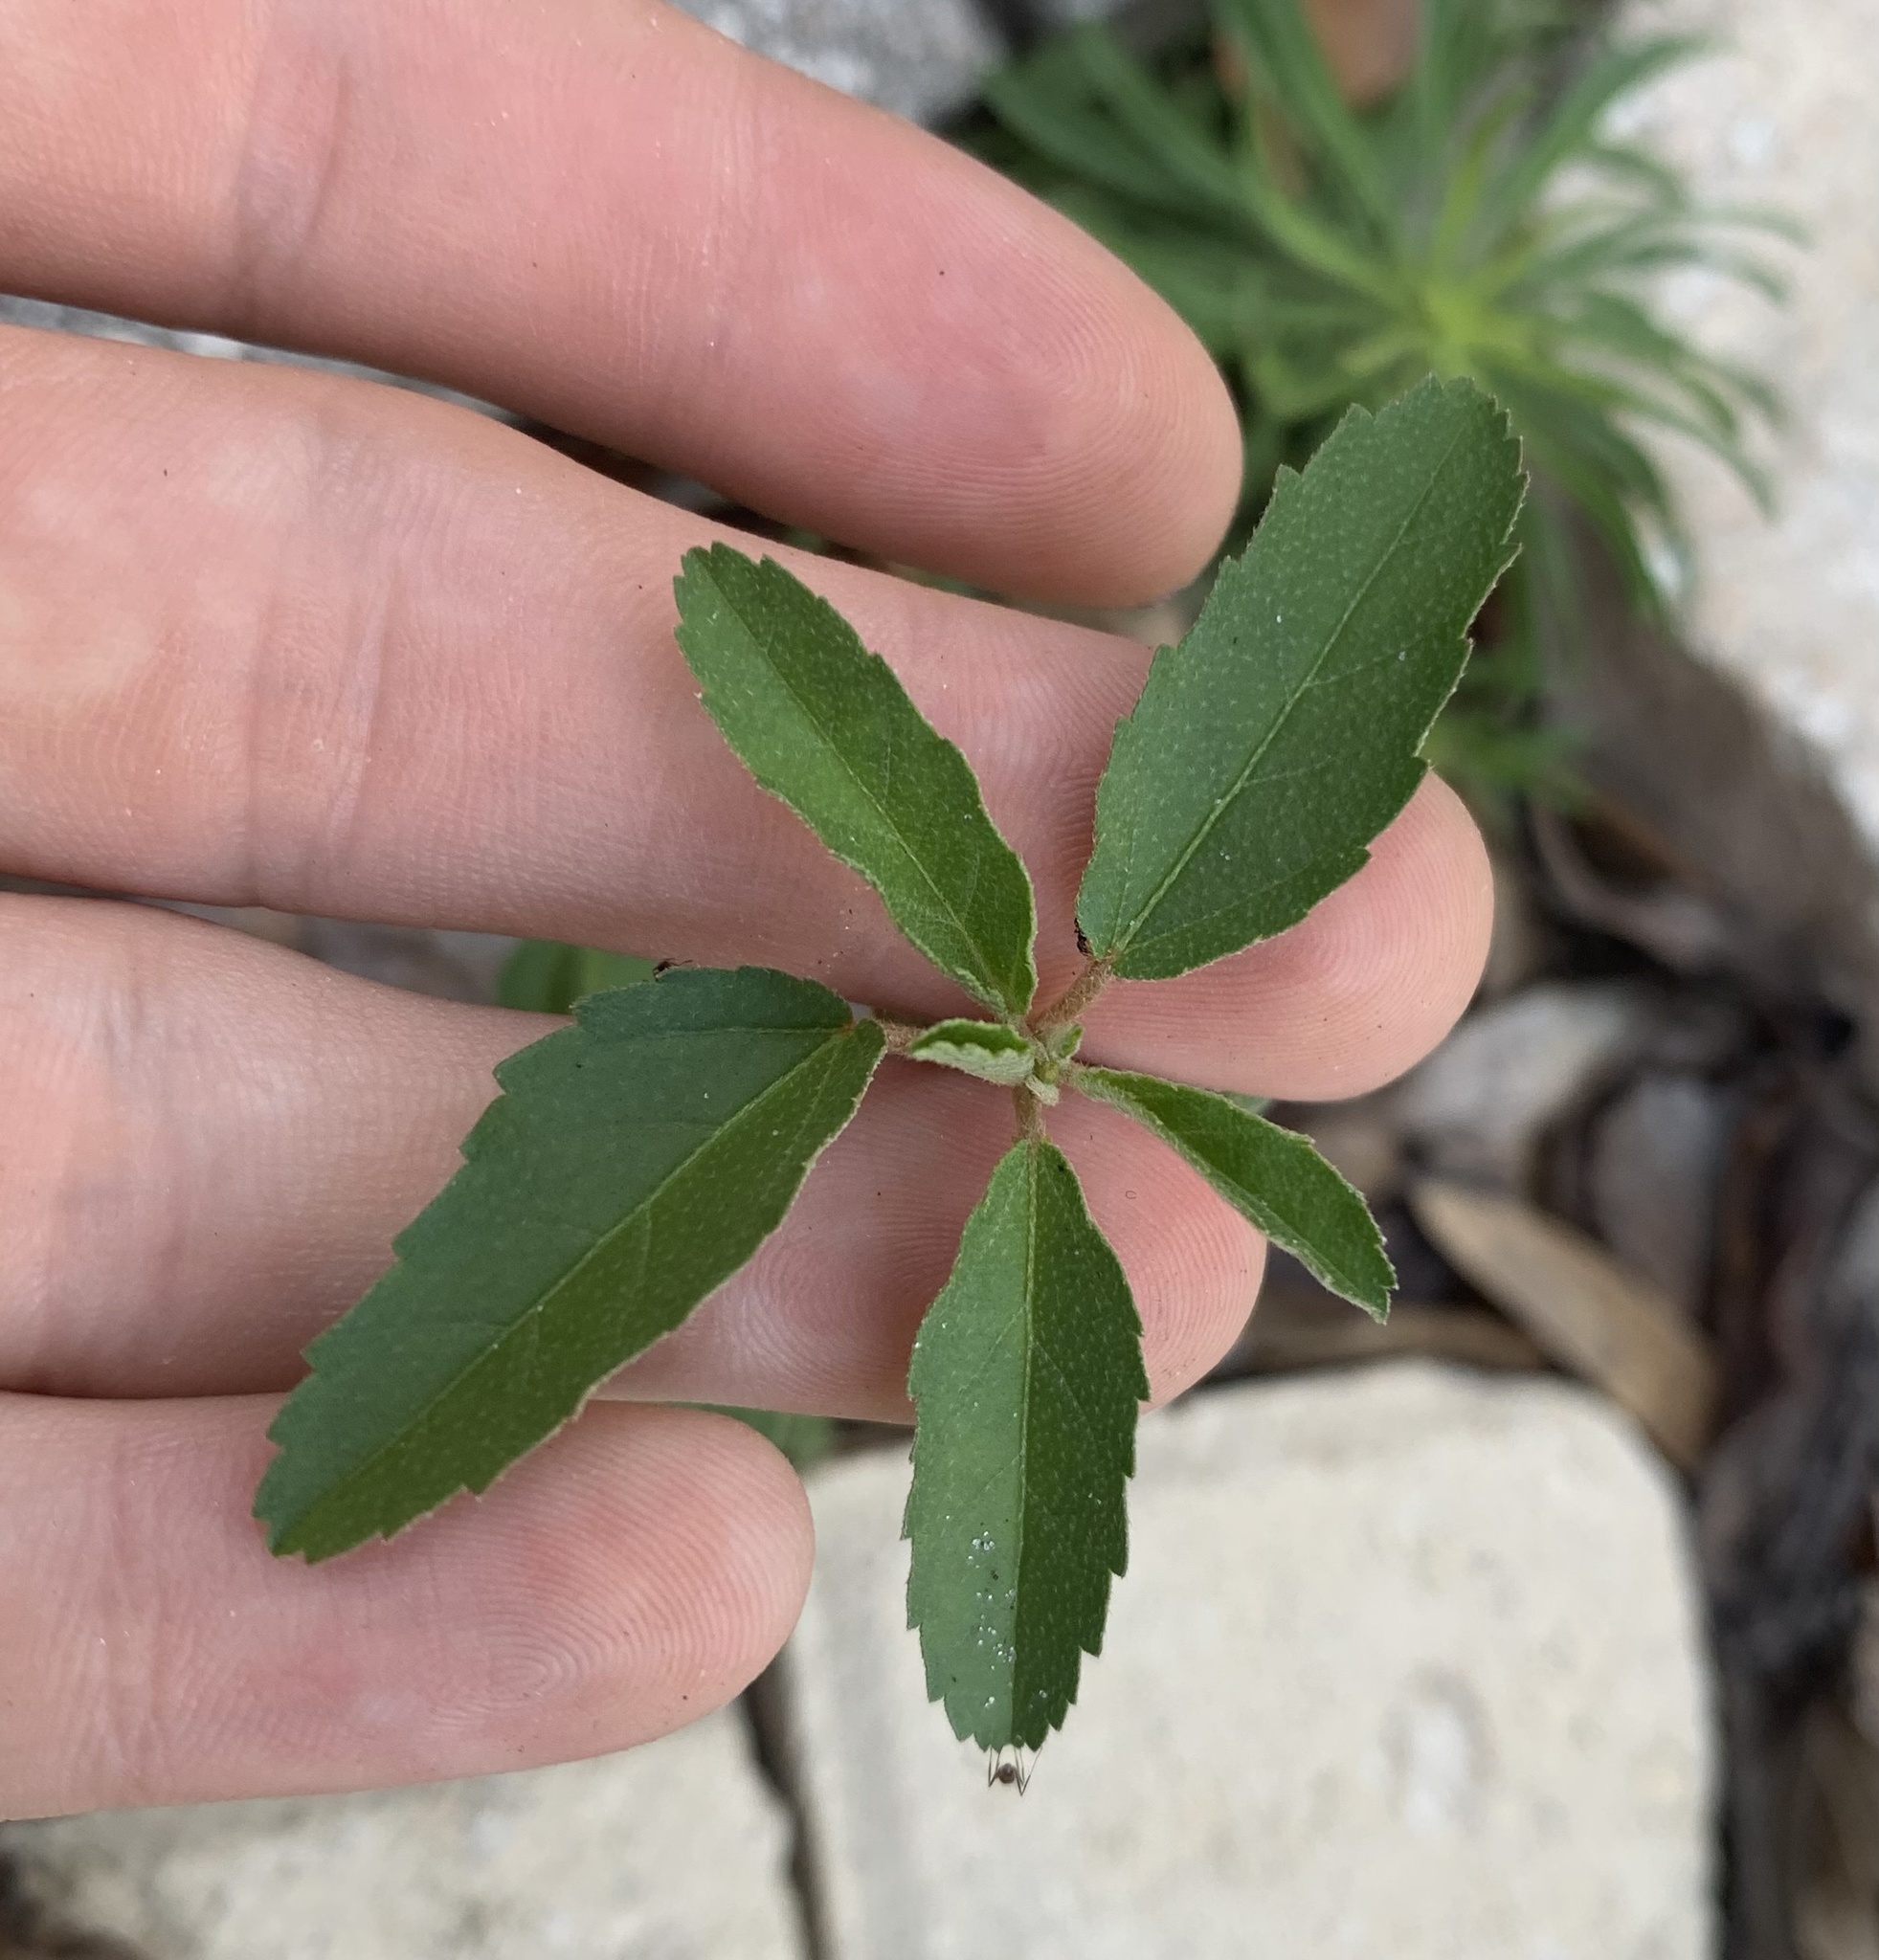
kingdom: Plantae
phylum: Tracheophyta
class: Magnoliopsida
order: Malpighiales
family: Euphorbiaceae
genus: Croton
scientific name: Croton glandulosus
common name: Tropic croton
